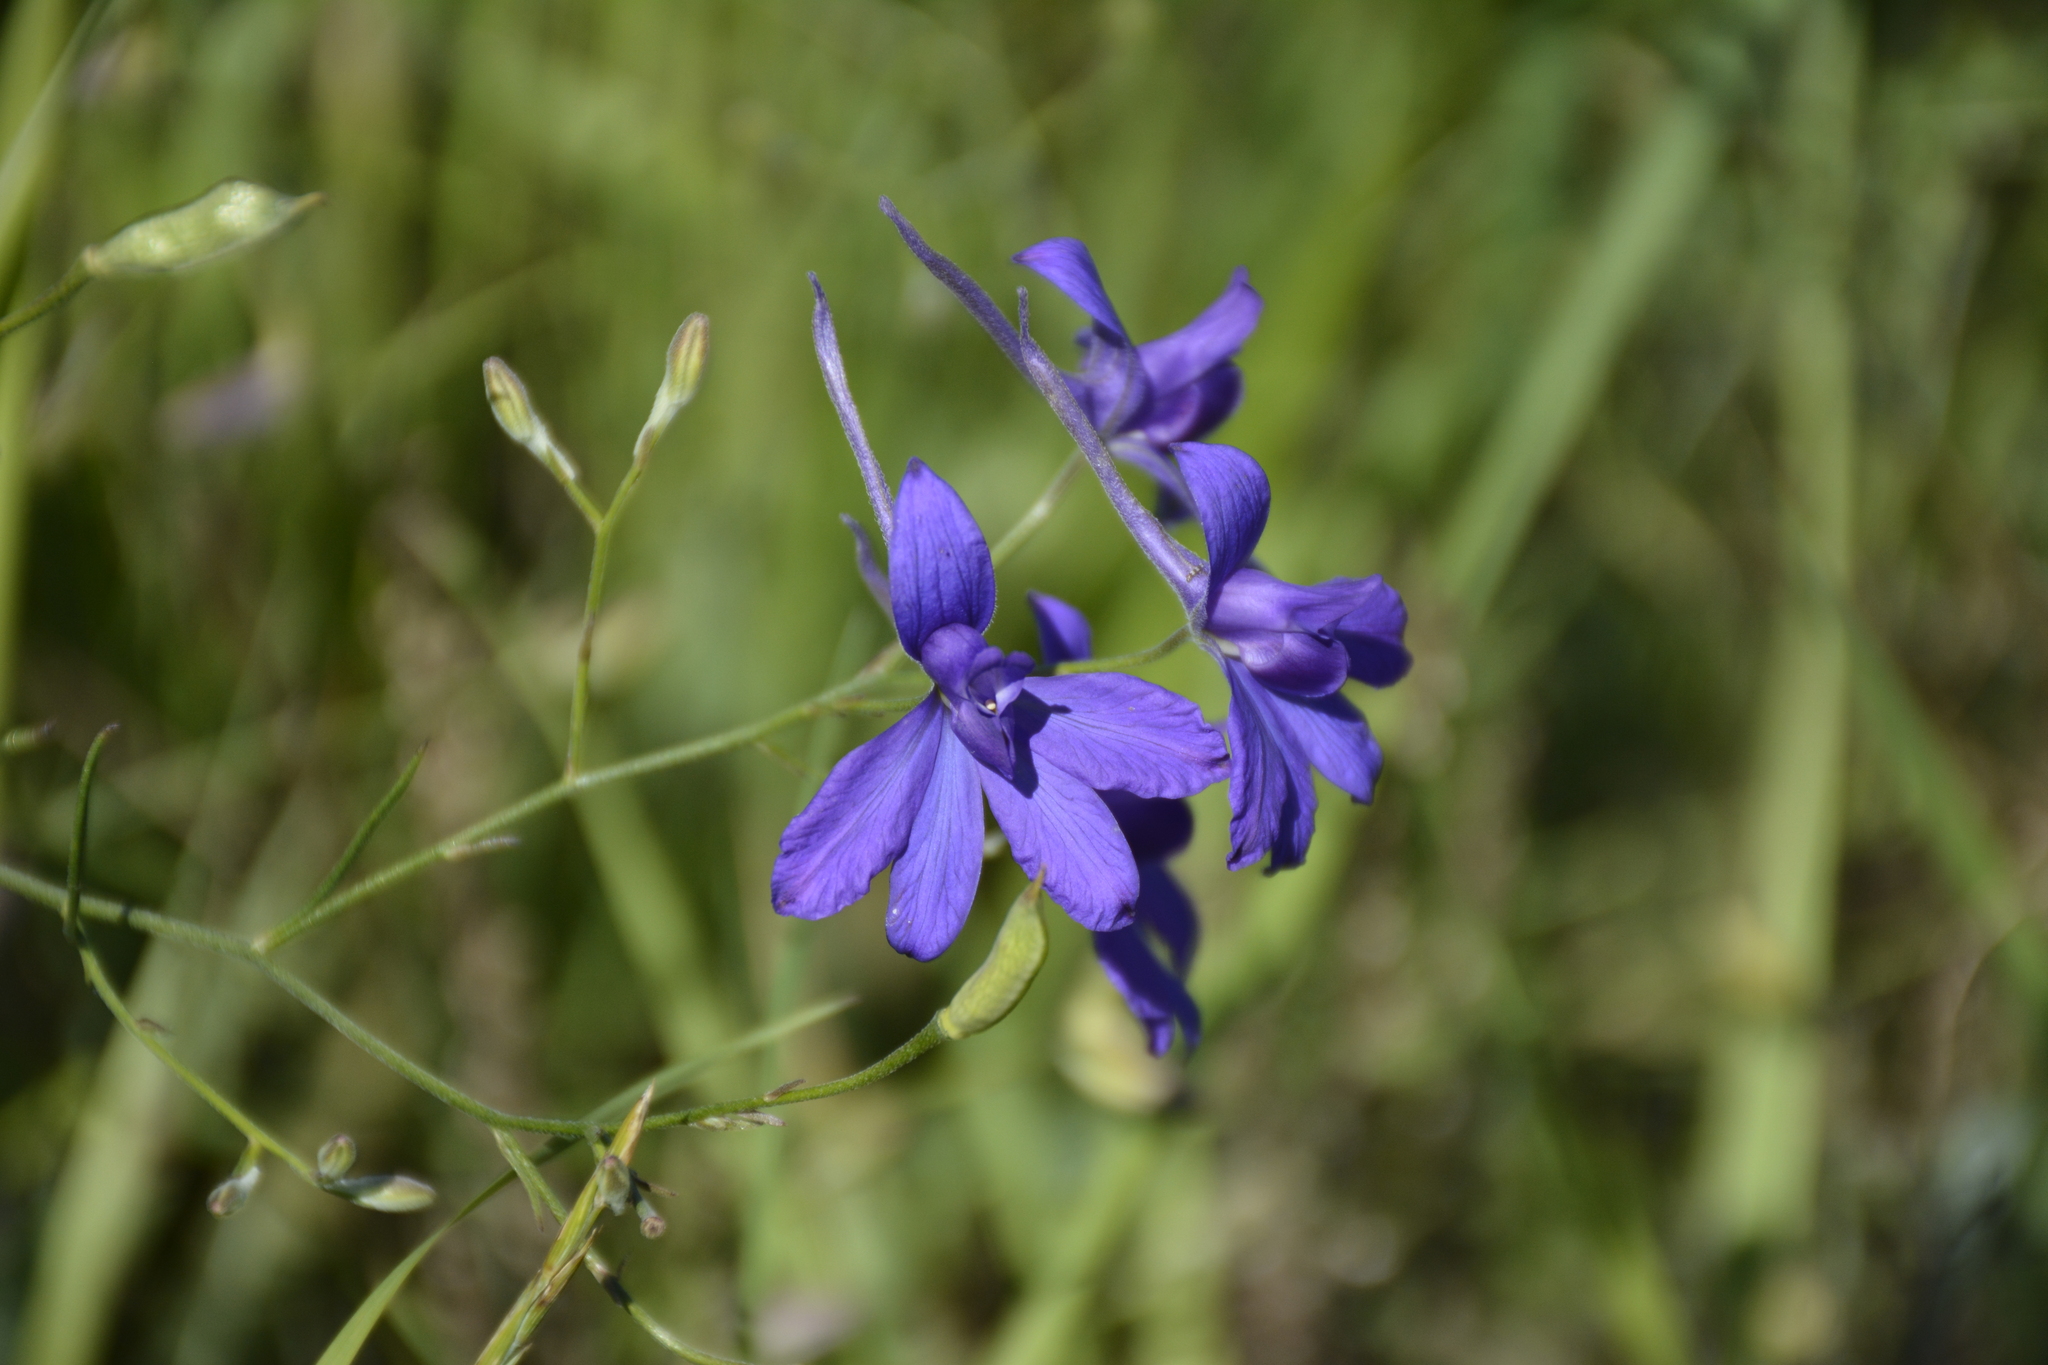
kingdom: Plantae
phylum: Tracheophyta
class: Magnoliopsida
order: Ranunculales
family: Ranunculaceae
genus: Delphinium
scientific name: Delphinium consolida
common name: Branching larkspur
